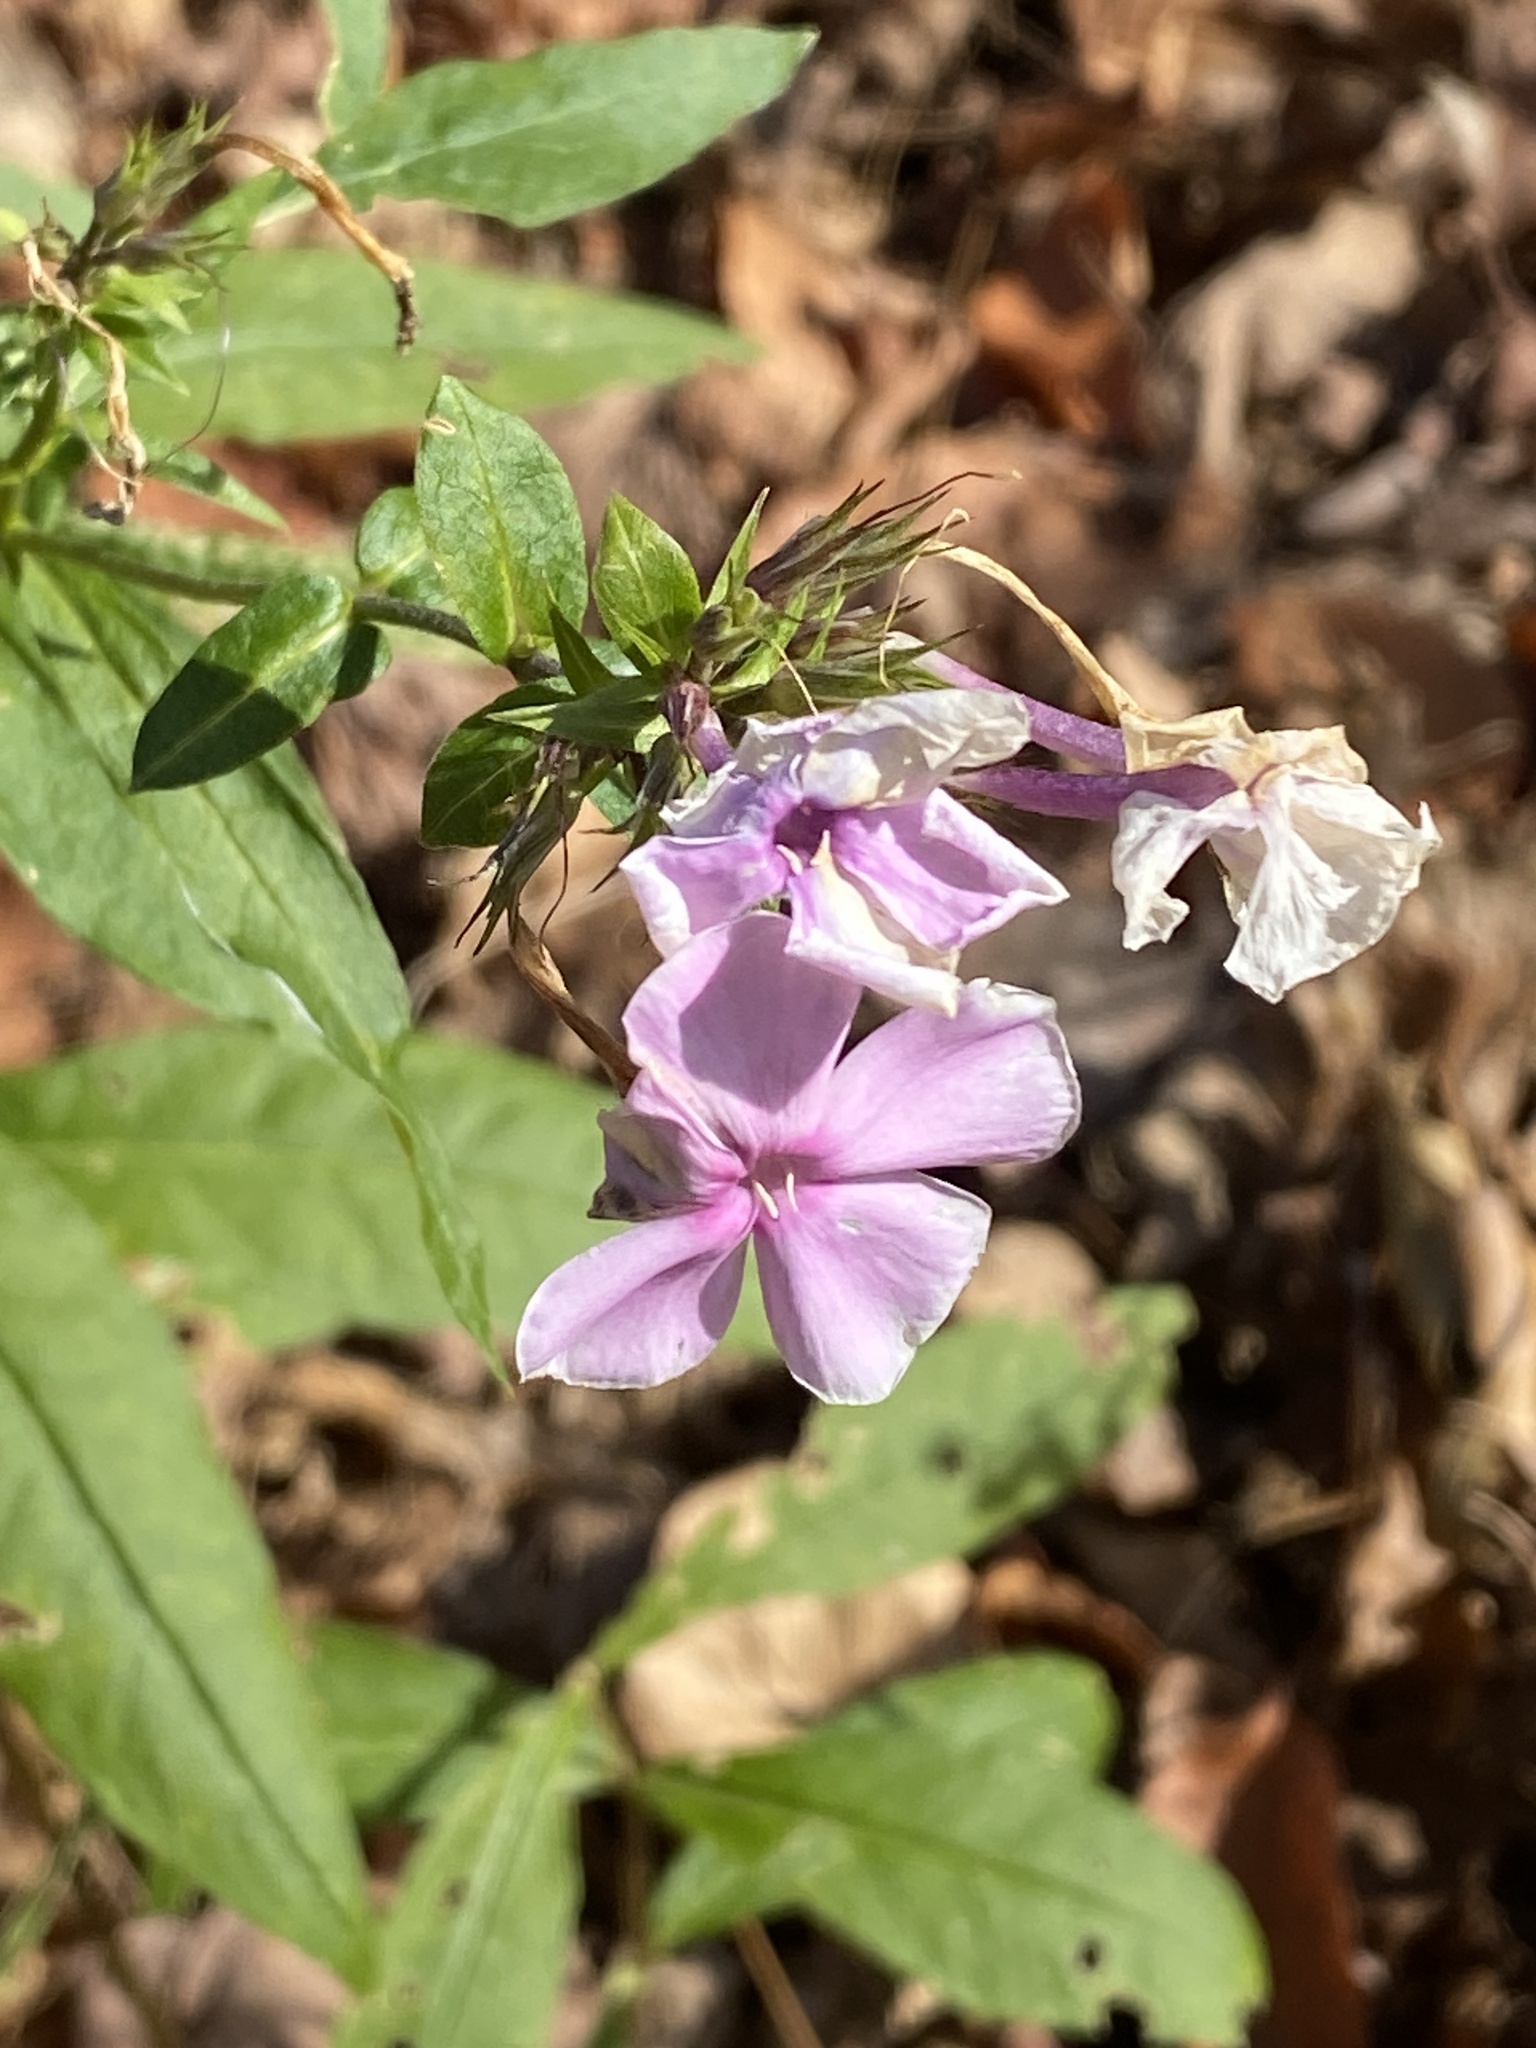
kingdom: Plantae
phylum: Tracheophyta
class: Magnoliopsida
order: Ericales
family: Polemoniaceae
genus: Phlox
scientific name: Phlox paniculata
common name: Fall phlox
